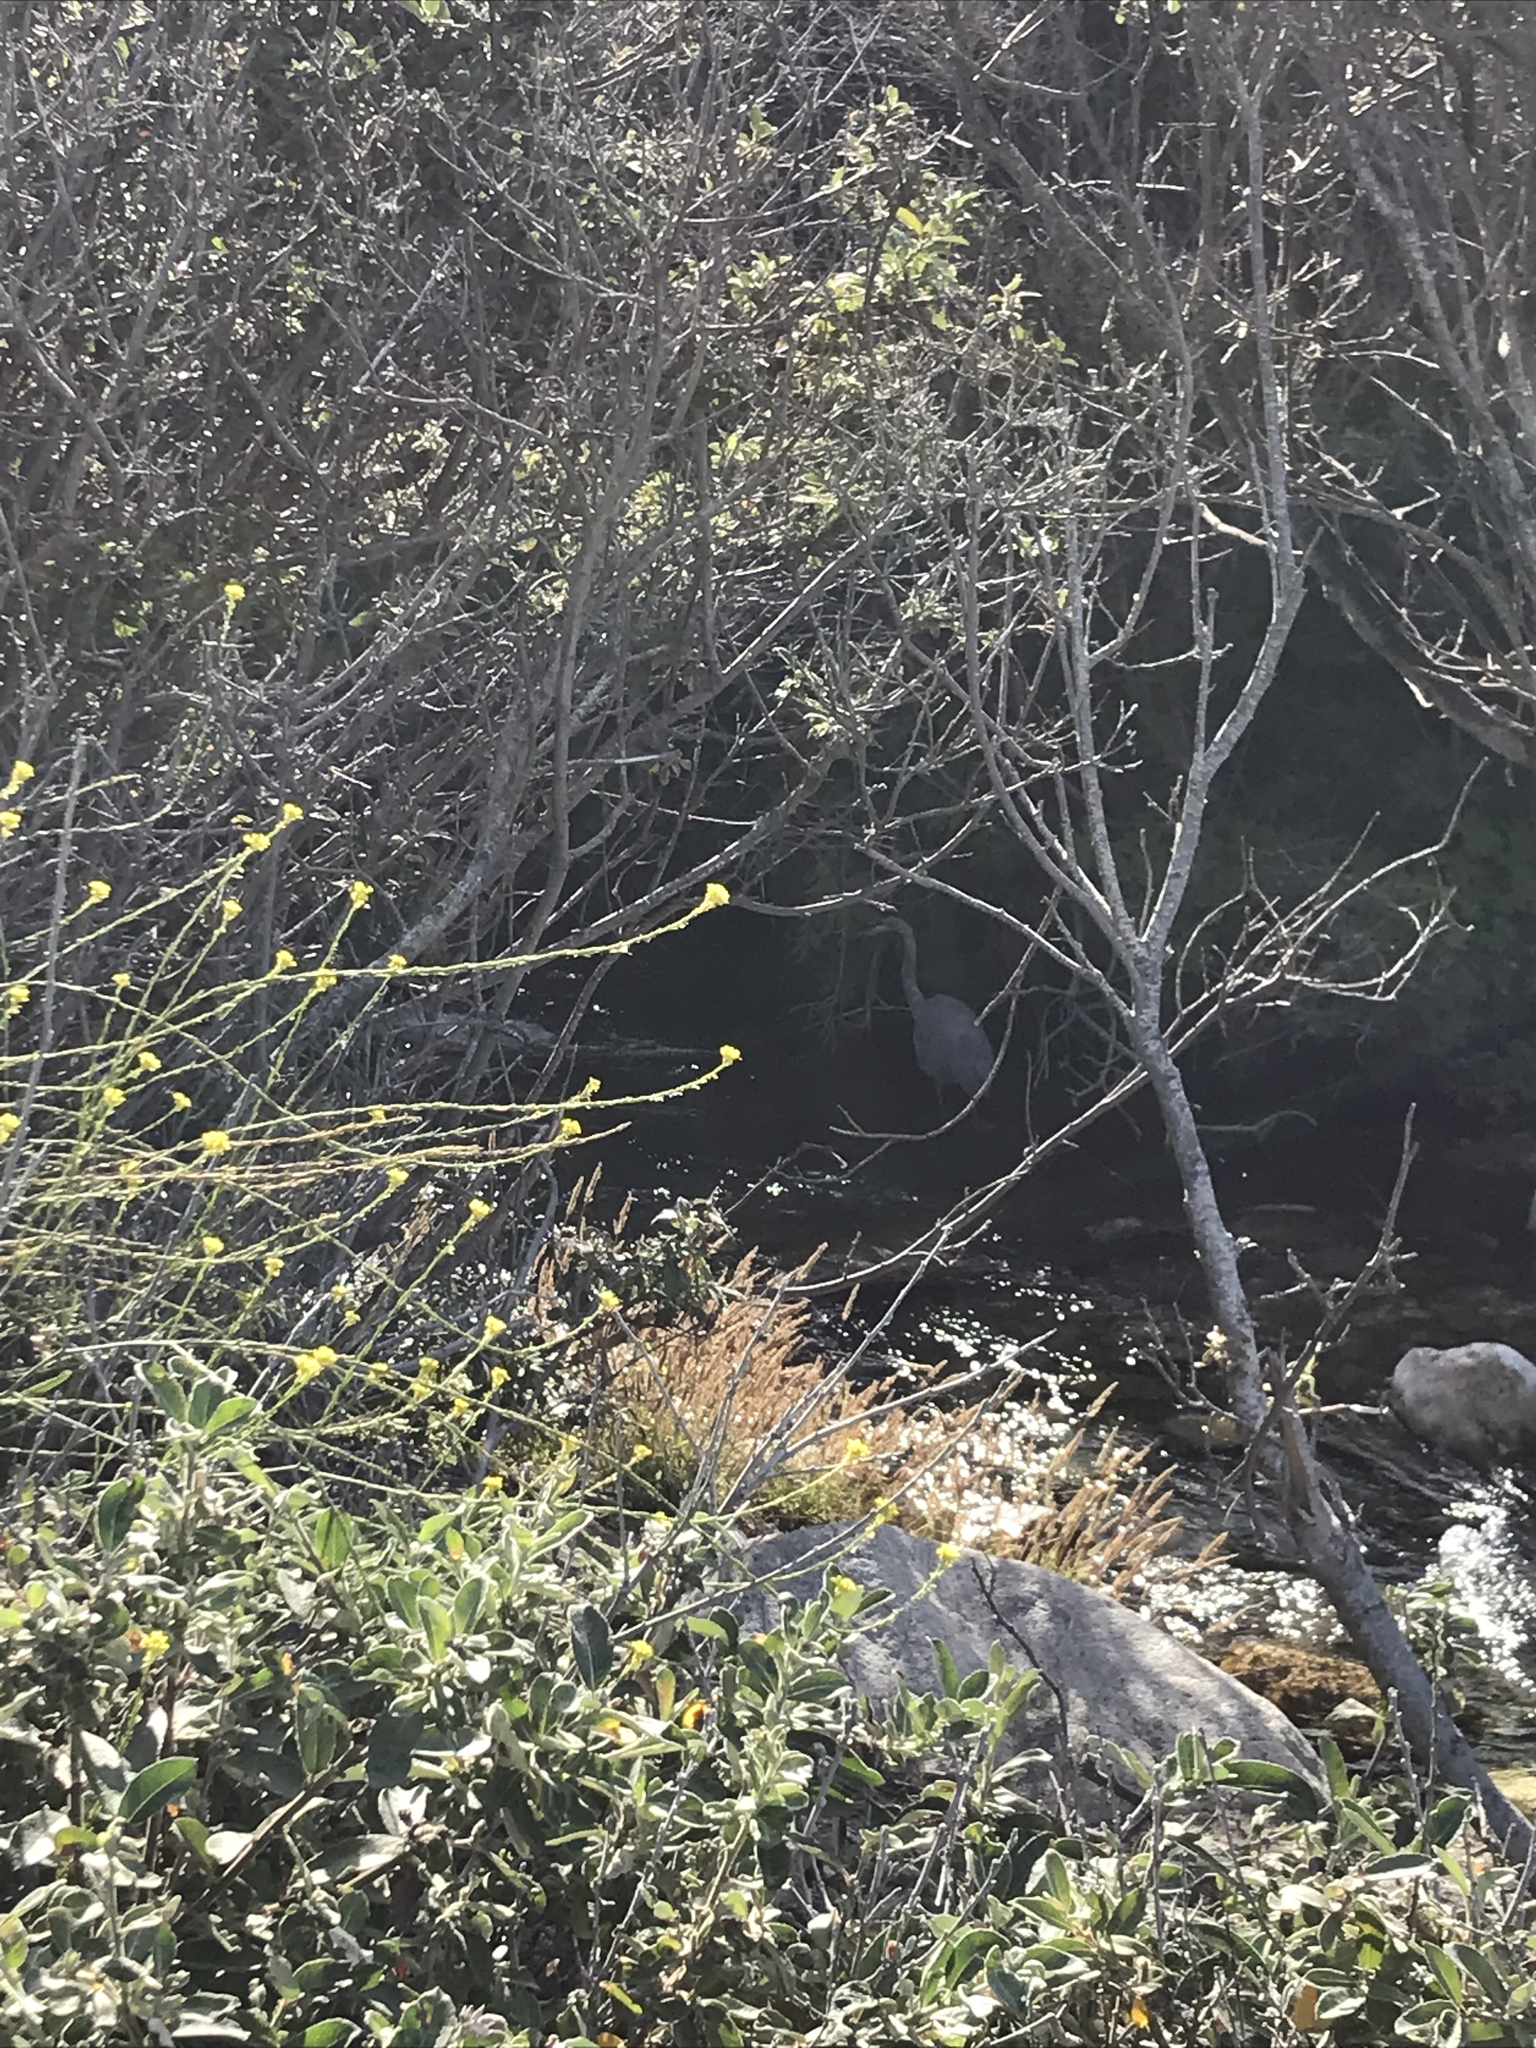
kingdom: Animalia
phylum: Chordata
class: Aves
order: Pelecaniformes
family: Ardeidae
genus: Ardea
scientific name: Ardea herodias
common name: Great blue heron
